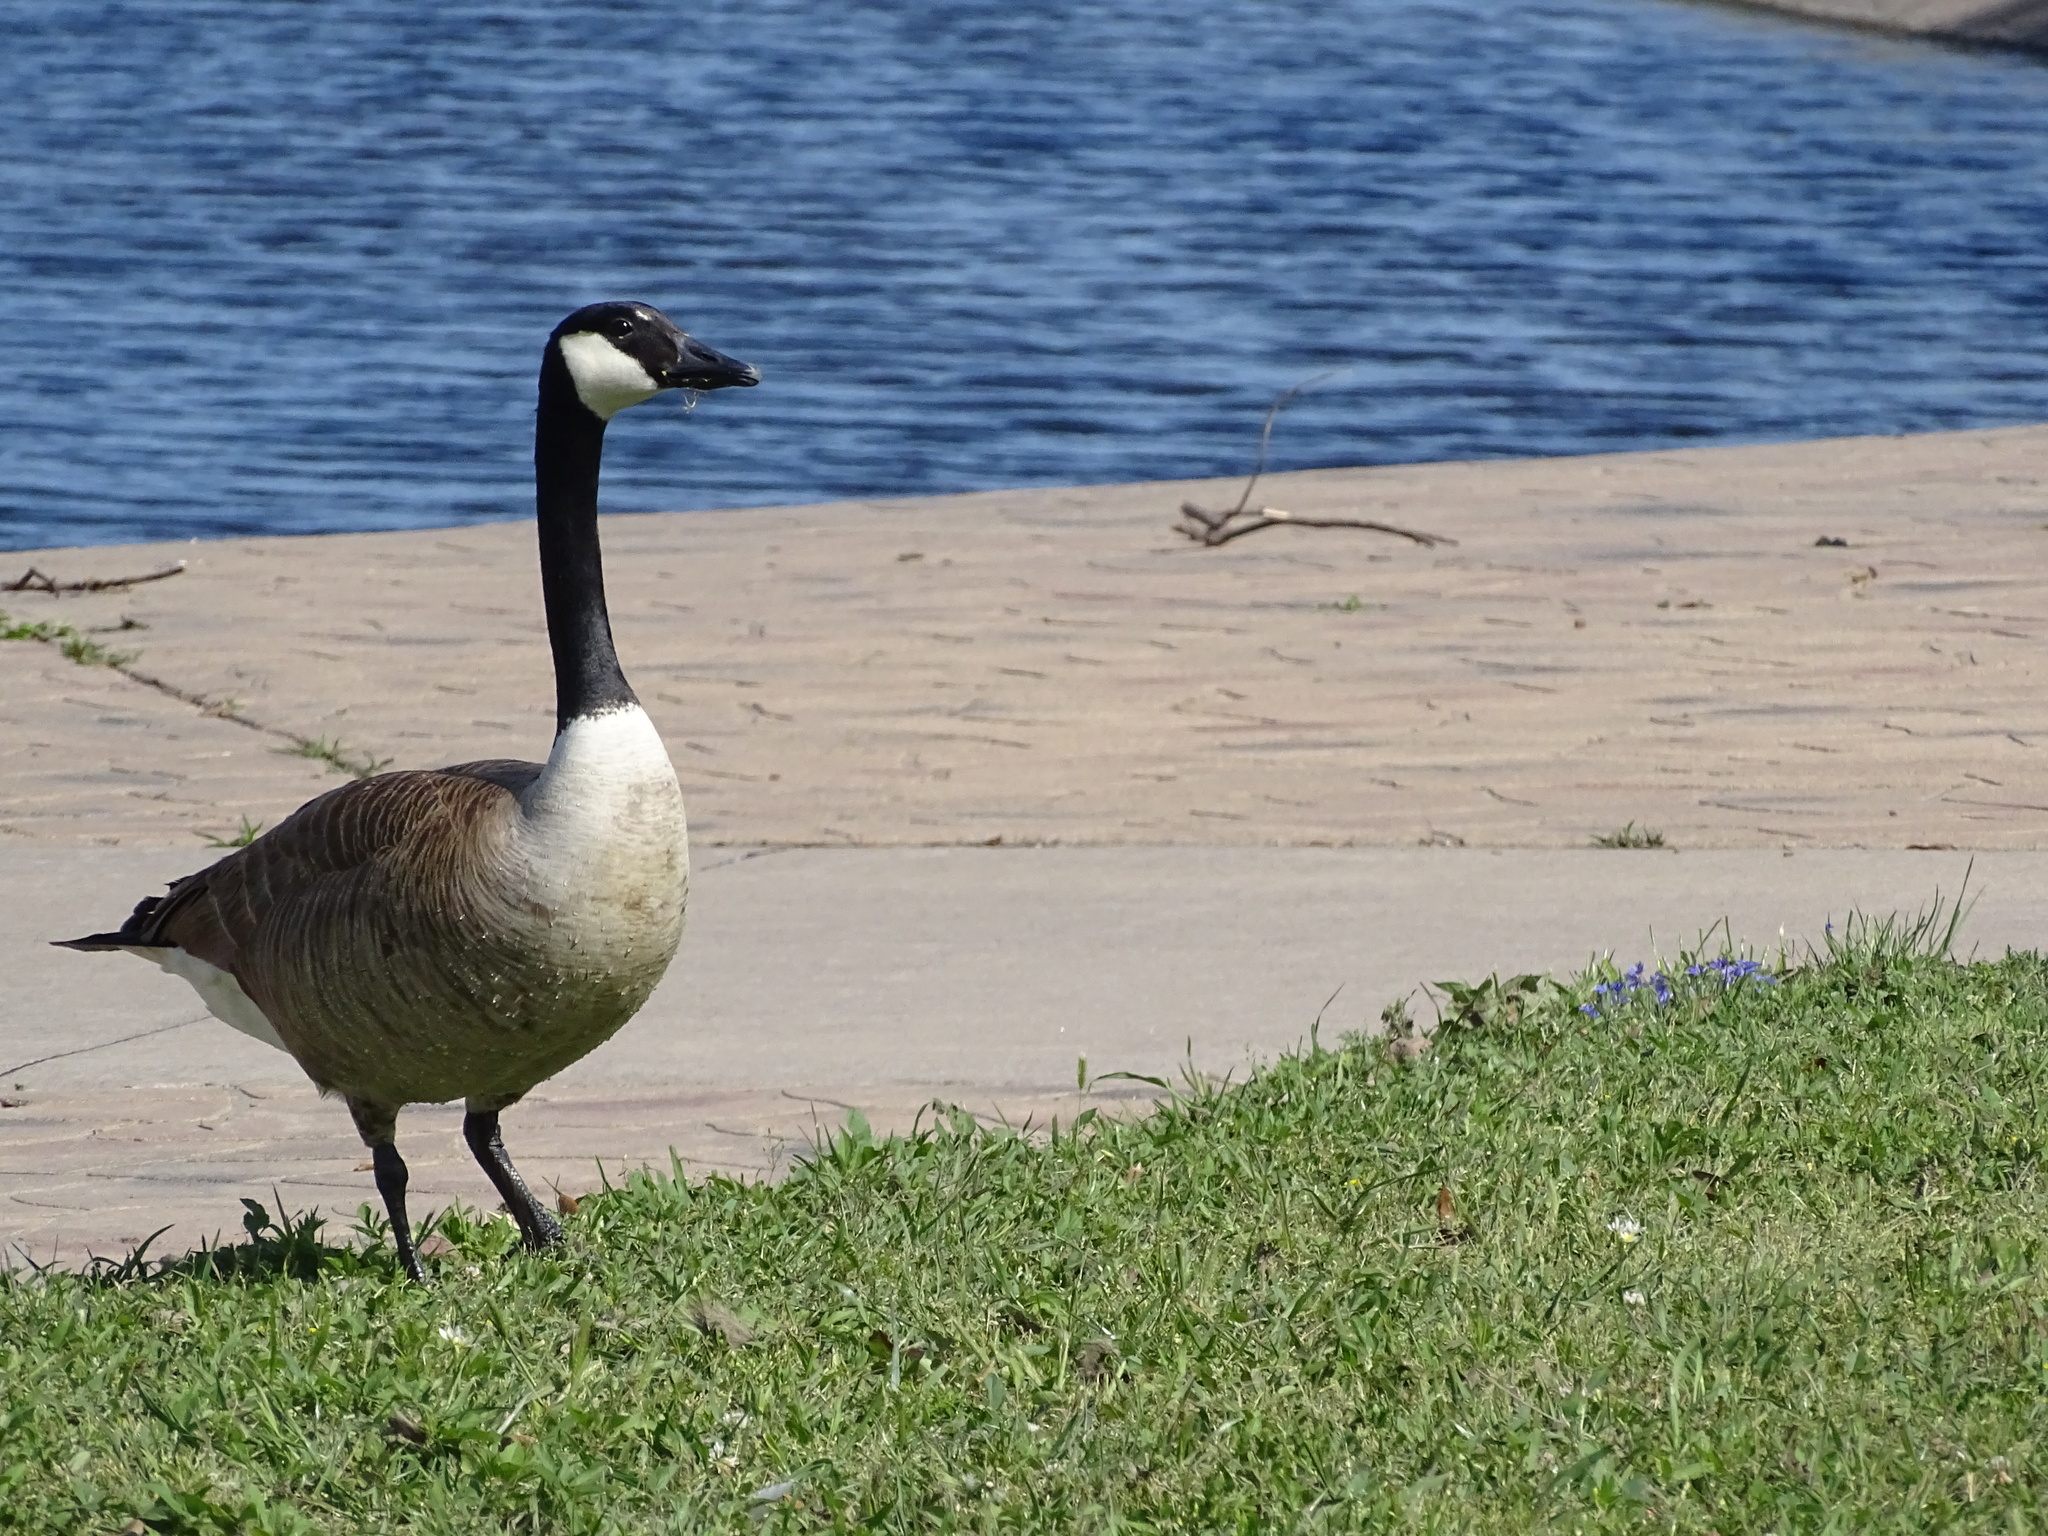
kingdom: Animalia
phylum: Chordata
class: Aves
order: Anseriformes
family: Anatidae
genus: Branta
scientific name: Branta canadensis
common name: Canada goose
